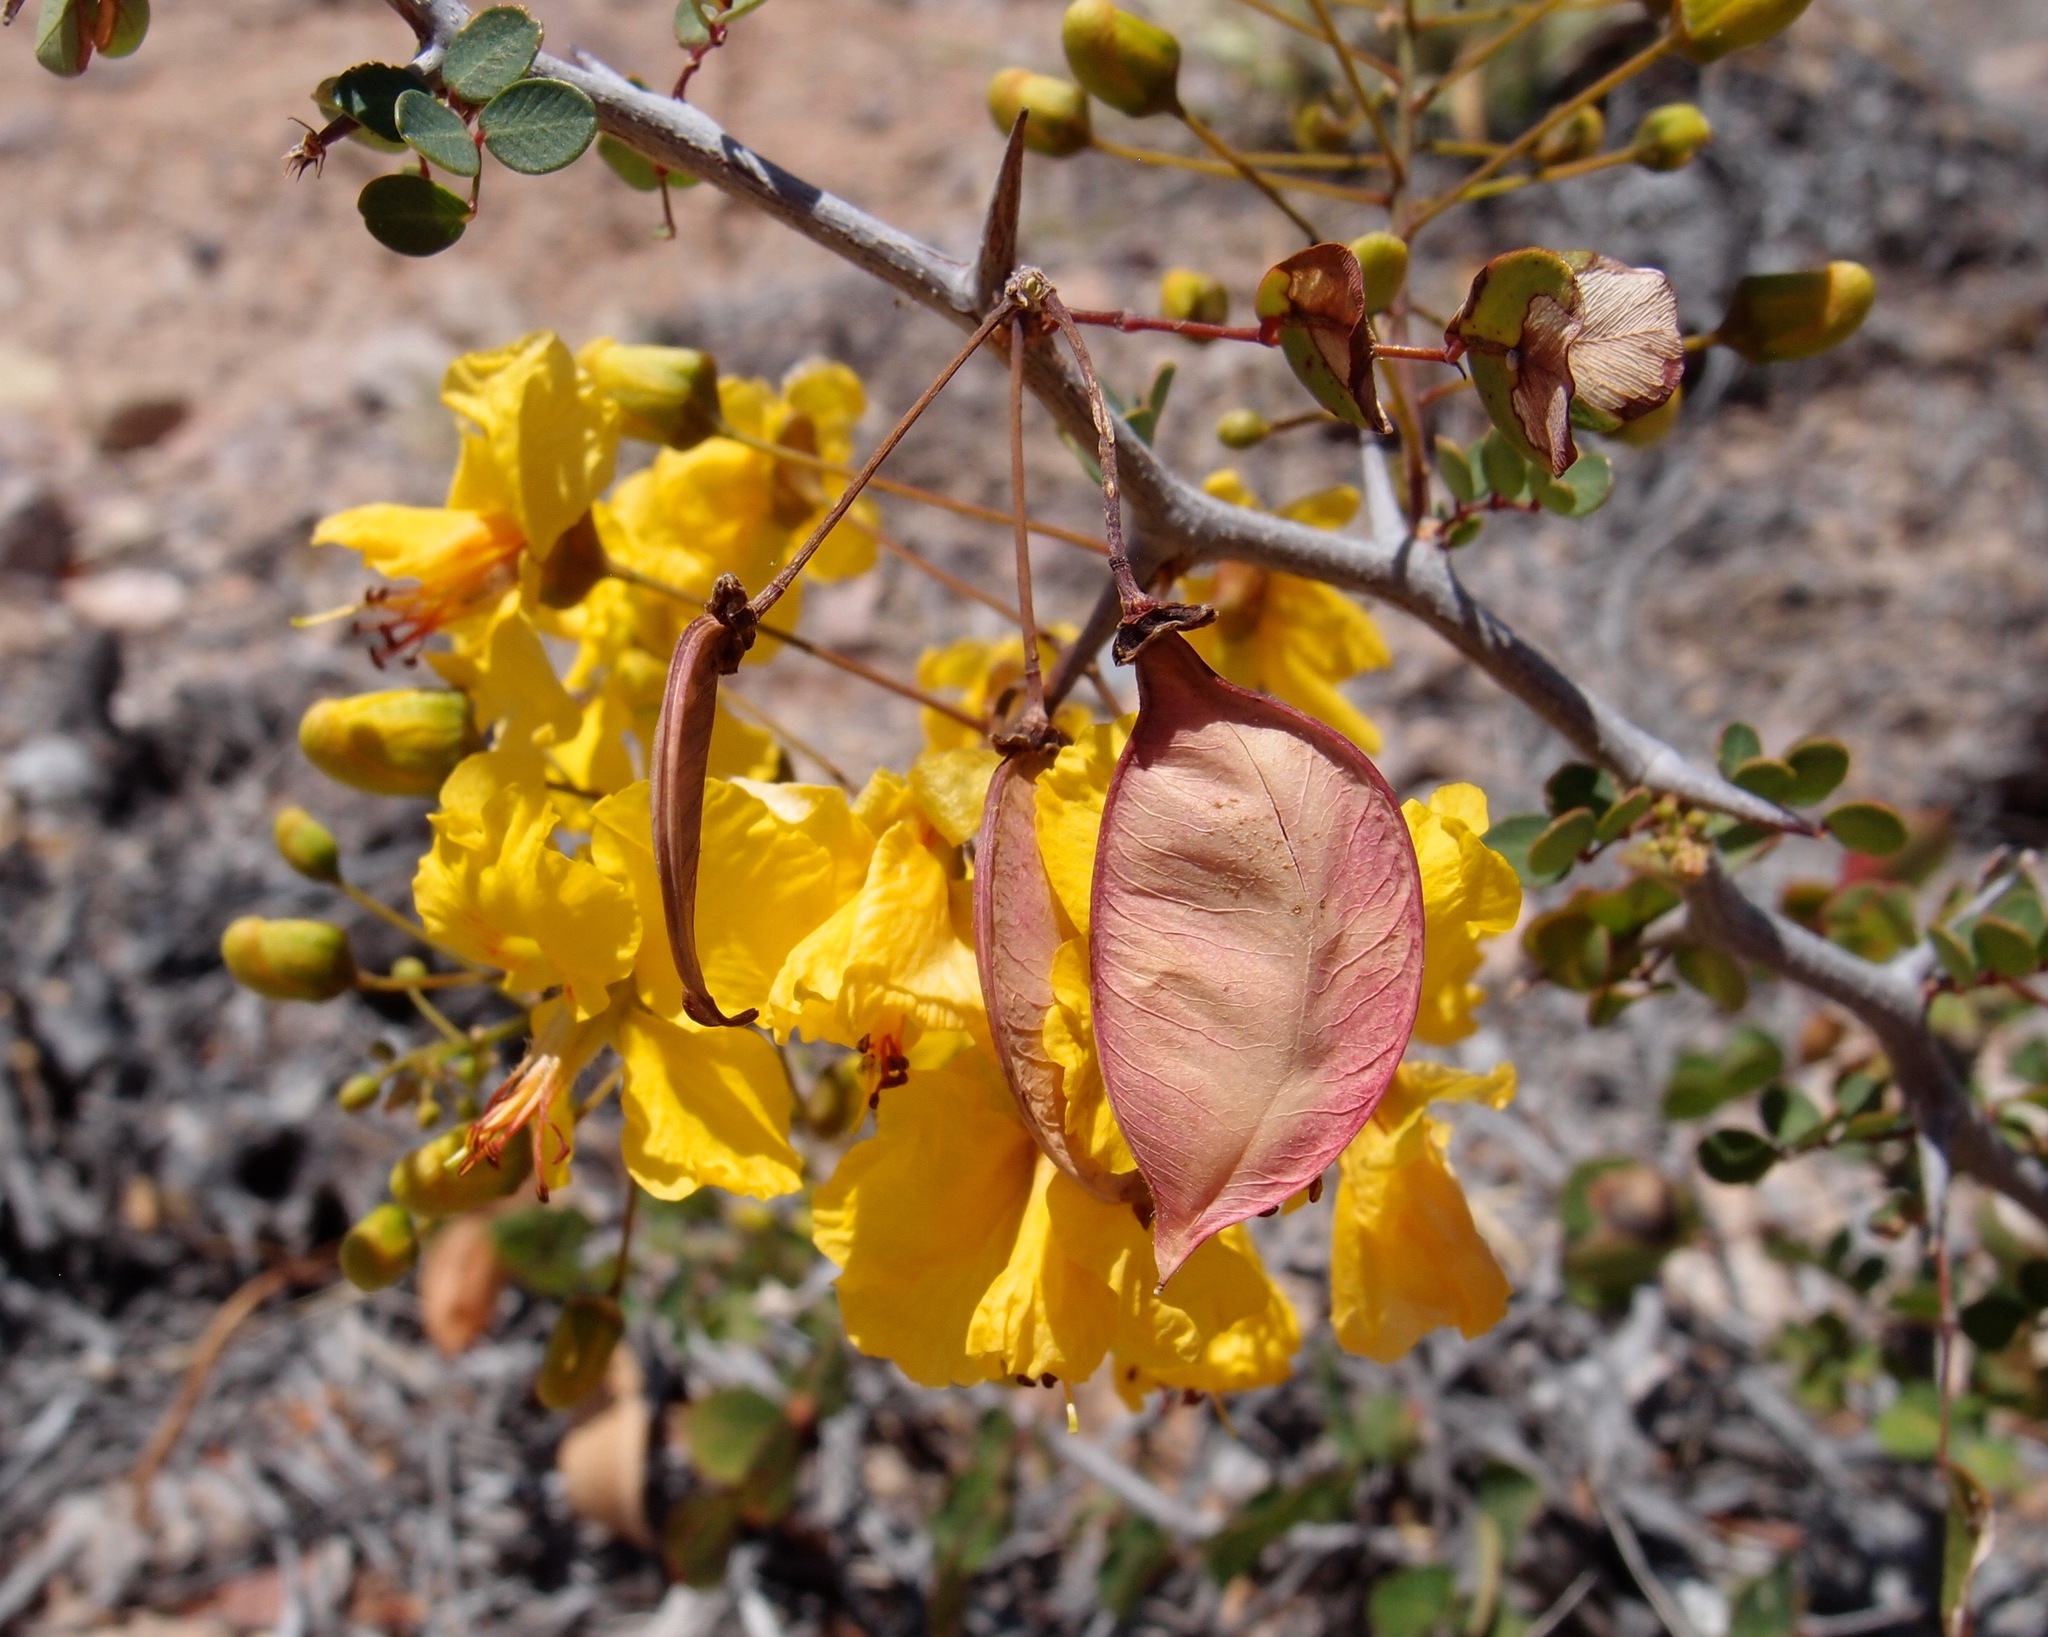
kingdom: Plantae
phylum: Tracheophyta
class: Magnoliopsida
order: Fabales
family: Fabaceae
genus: Haematoxylum
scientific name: Haematoxylum brasiletto
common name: Peachwood
